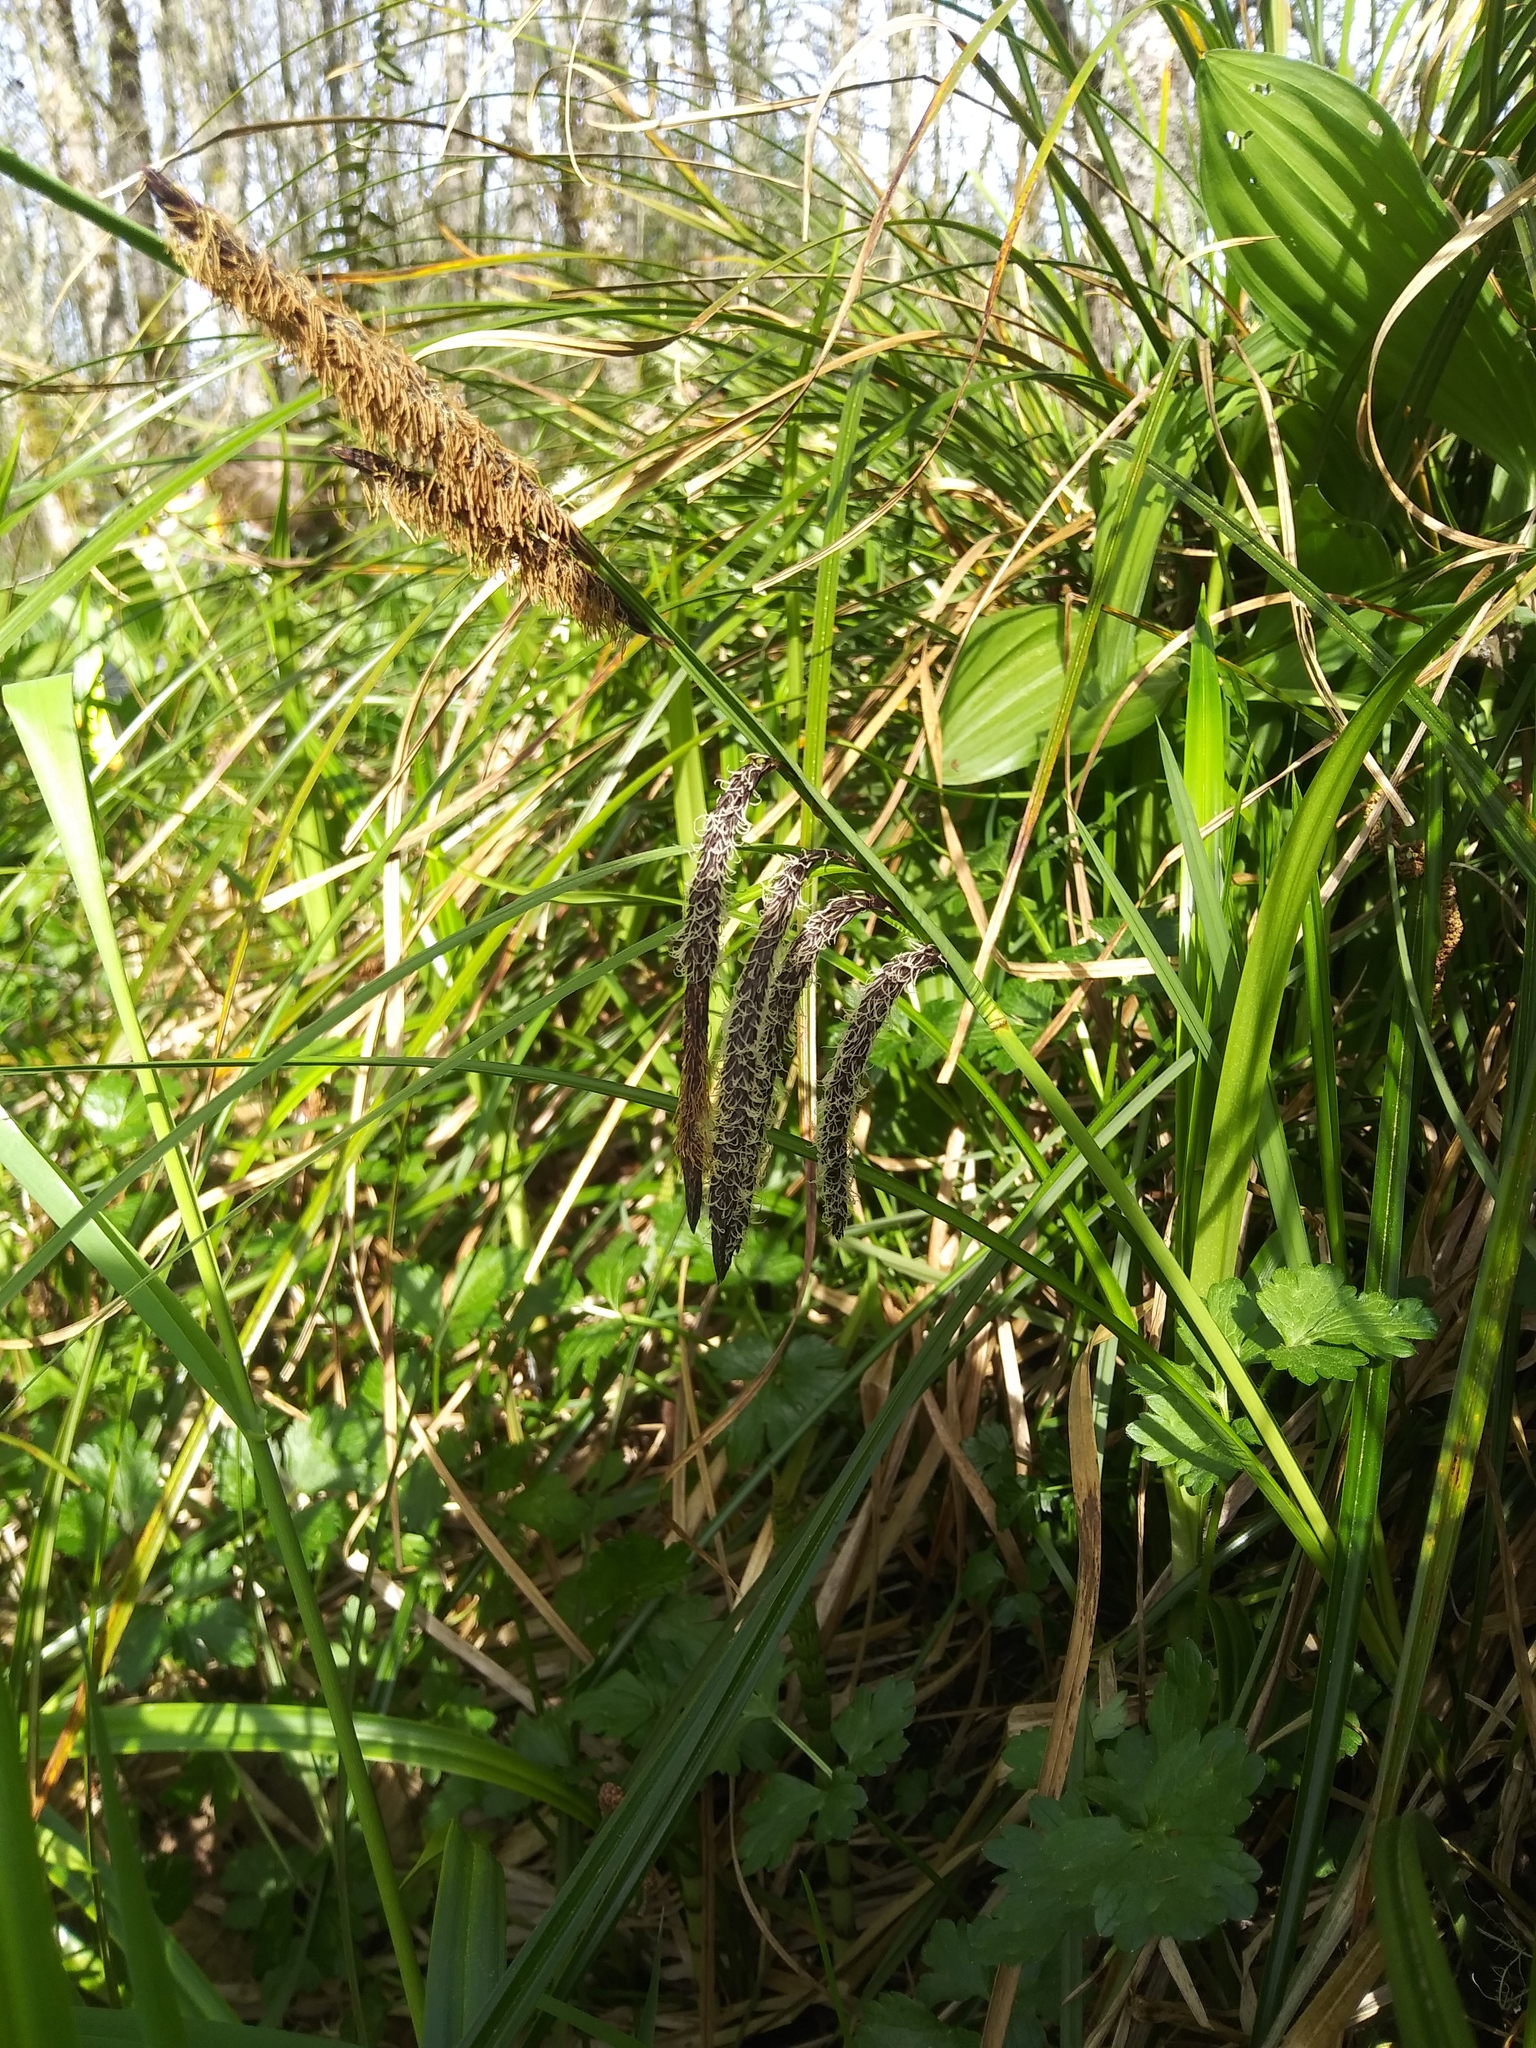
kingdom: Plantae
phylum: Tracheophyta
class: Liliopsida
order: Poales
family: Cyperaceae
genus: Carex
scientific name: Carex obnupta
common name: Slough sedge
